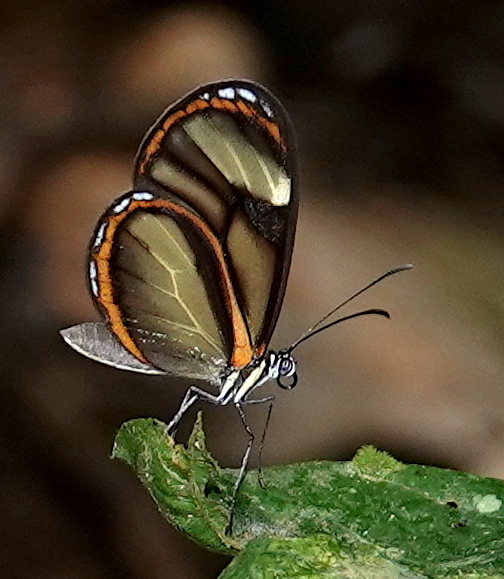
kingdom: Animalia
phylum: Arthropoda
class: Insecta
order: Lepidoptera
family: Nymphalidae
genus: Pteronymia
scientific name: Pteronymia vestilla
